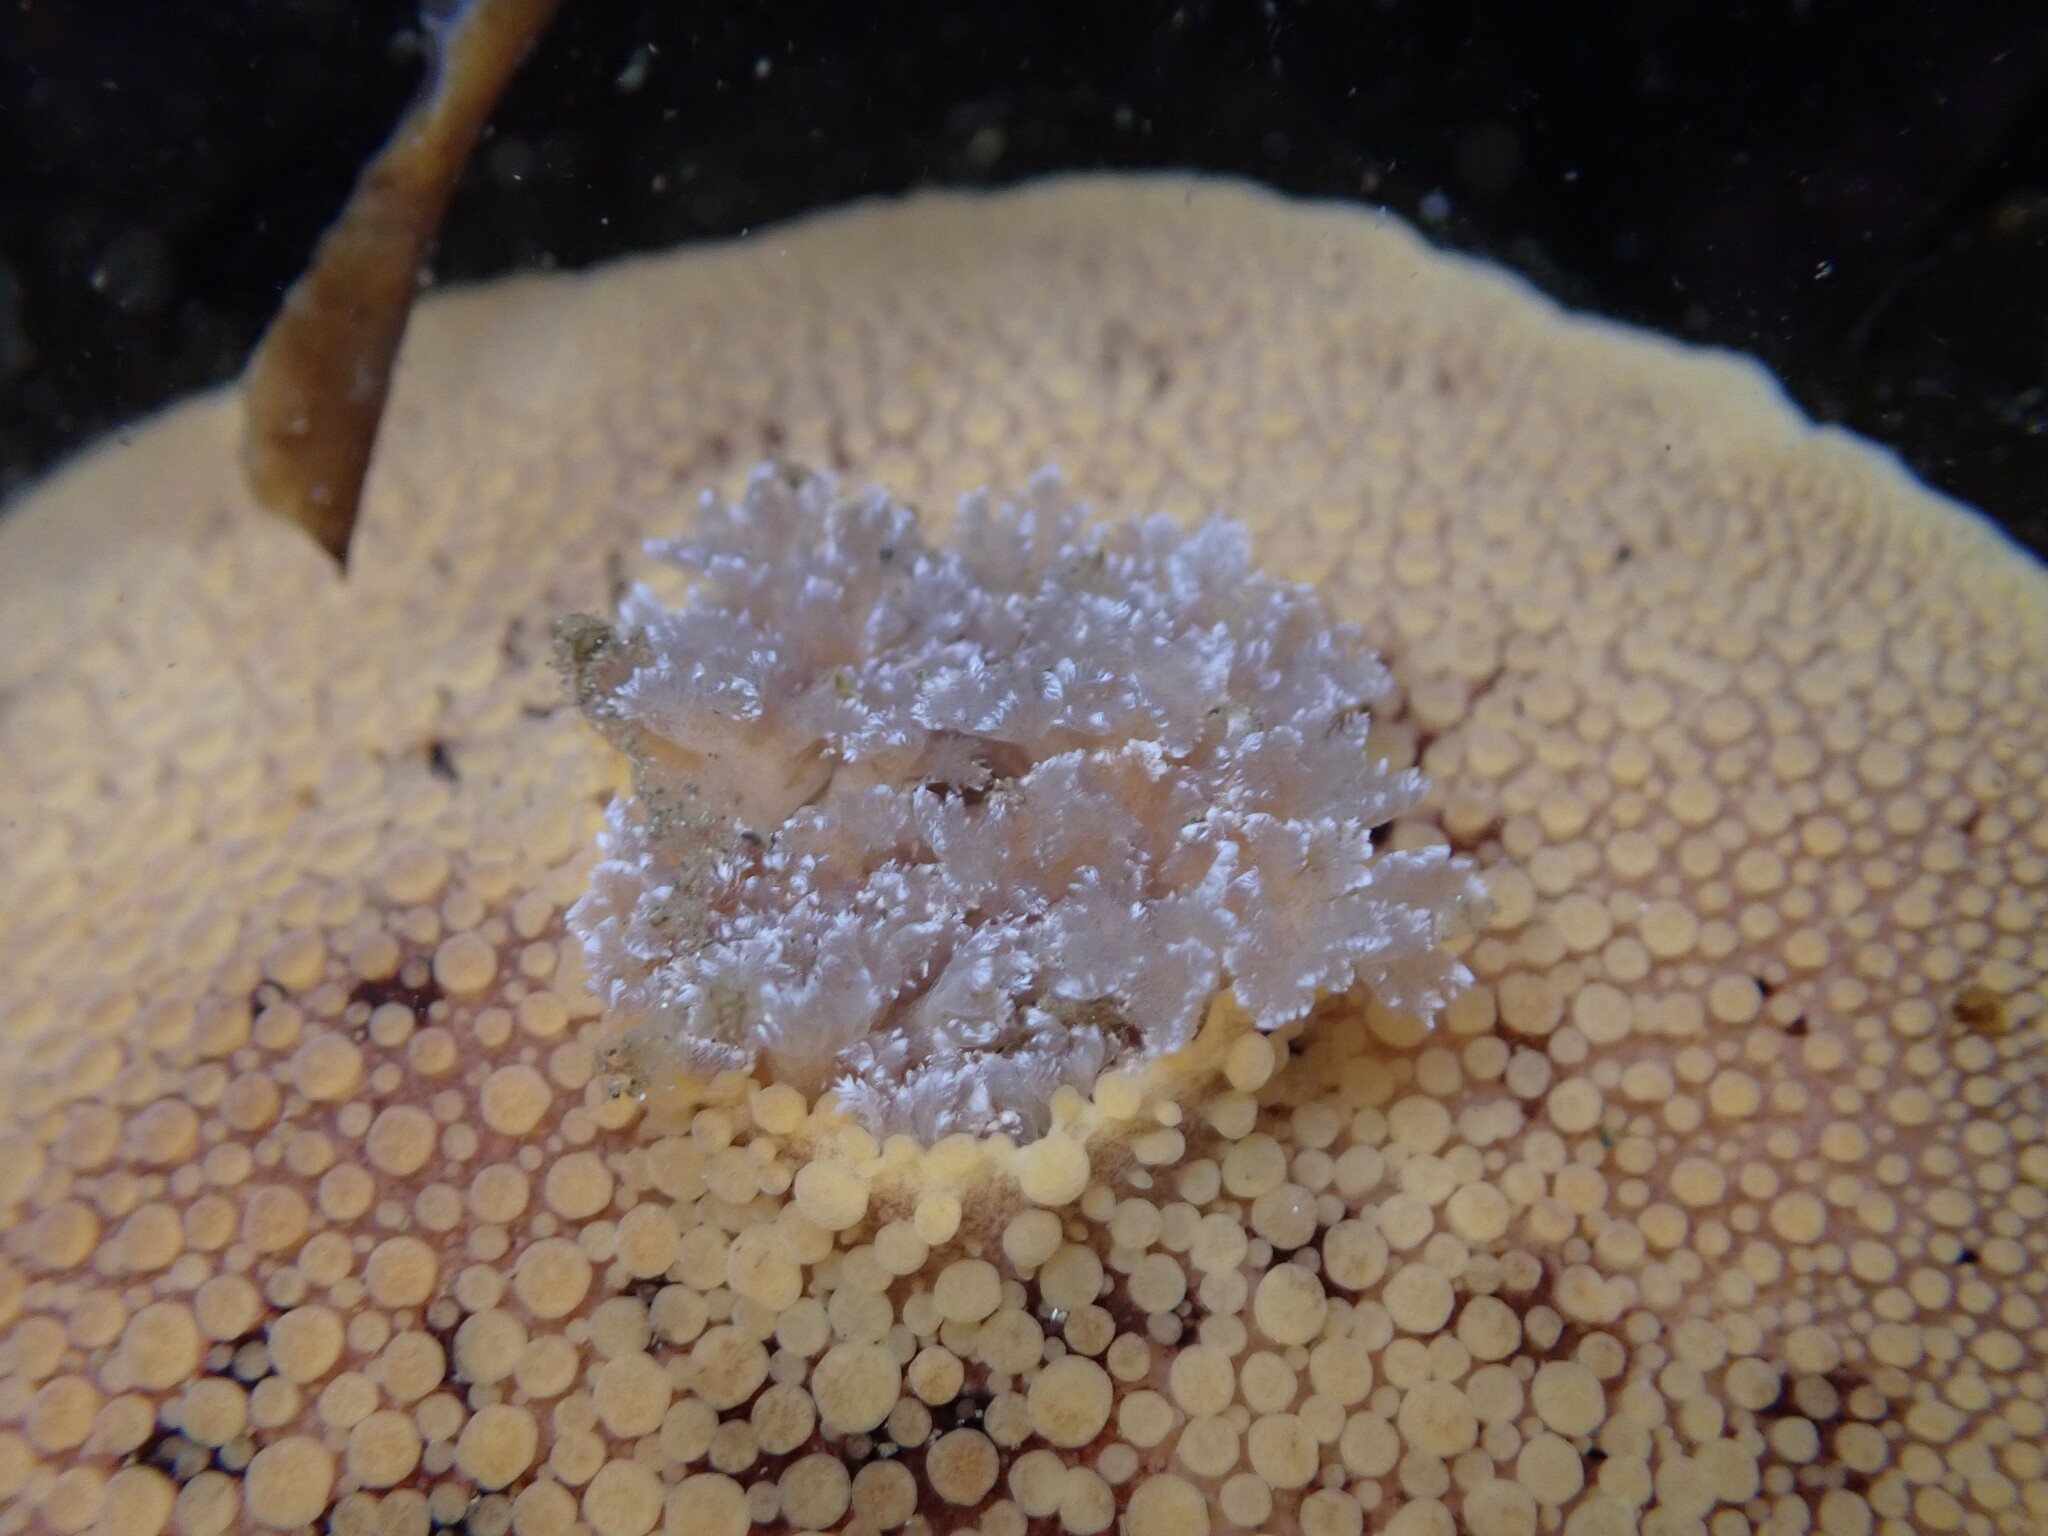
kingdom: Animalia
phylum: Mollusca
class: Gastropoda
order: Nudibranchia
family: Discodorididae
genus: Peltodoris
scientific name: Peltodoris nobilis
